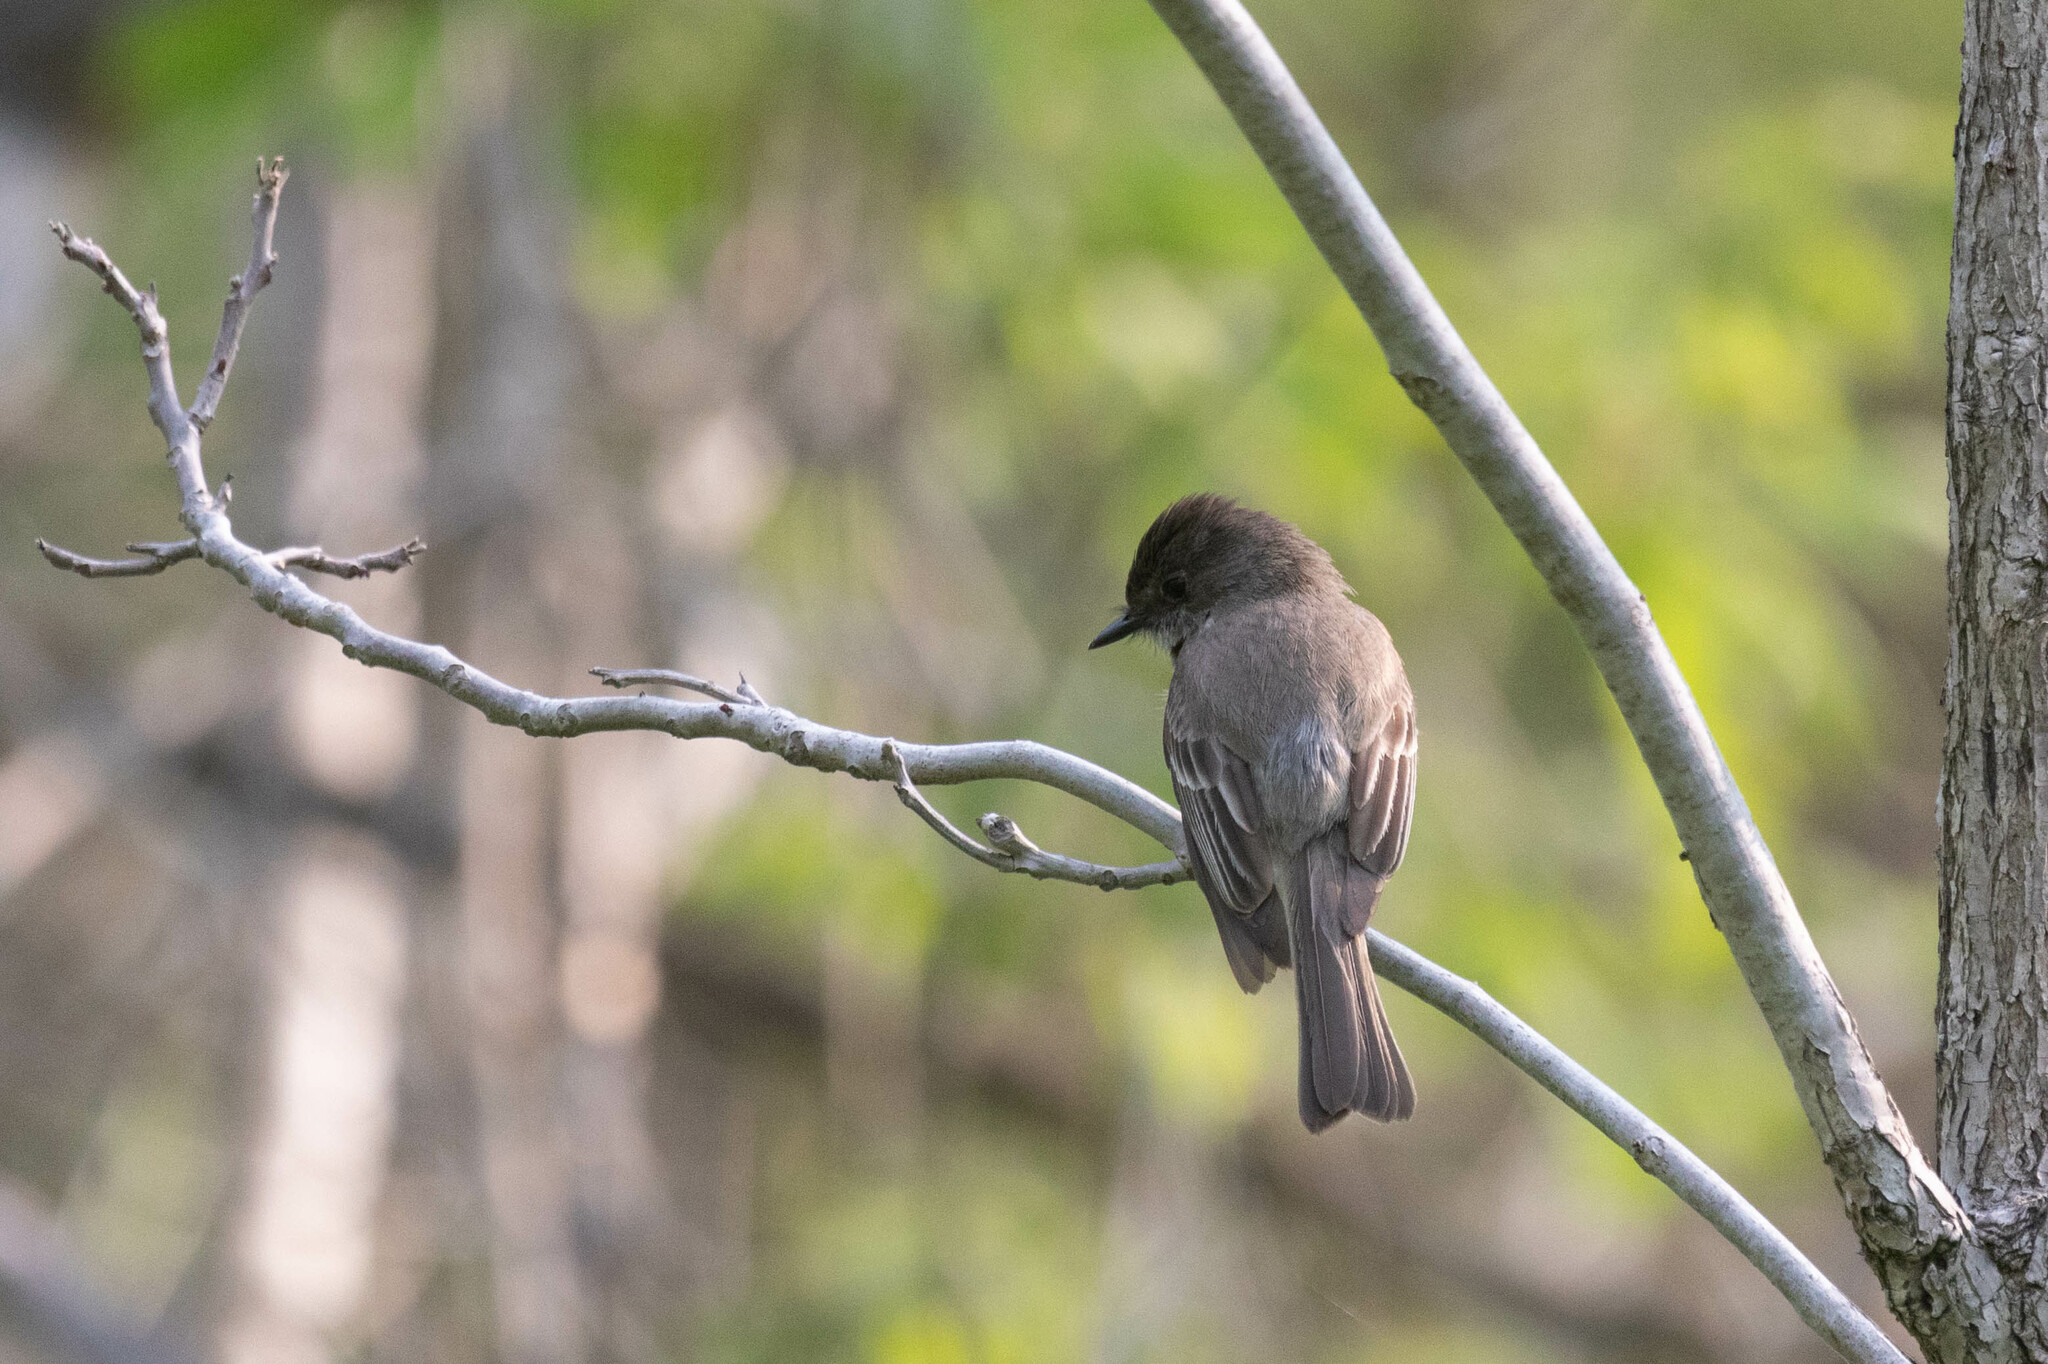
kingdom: Animalia
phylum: Chordata
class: Aves
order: Passeriformes
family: Tyrannidae
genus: Sayornis
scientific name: Sayornis phoebe
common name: Eastern phoebe
